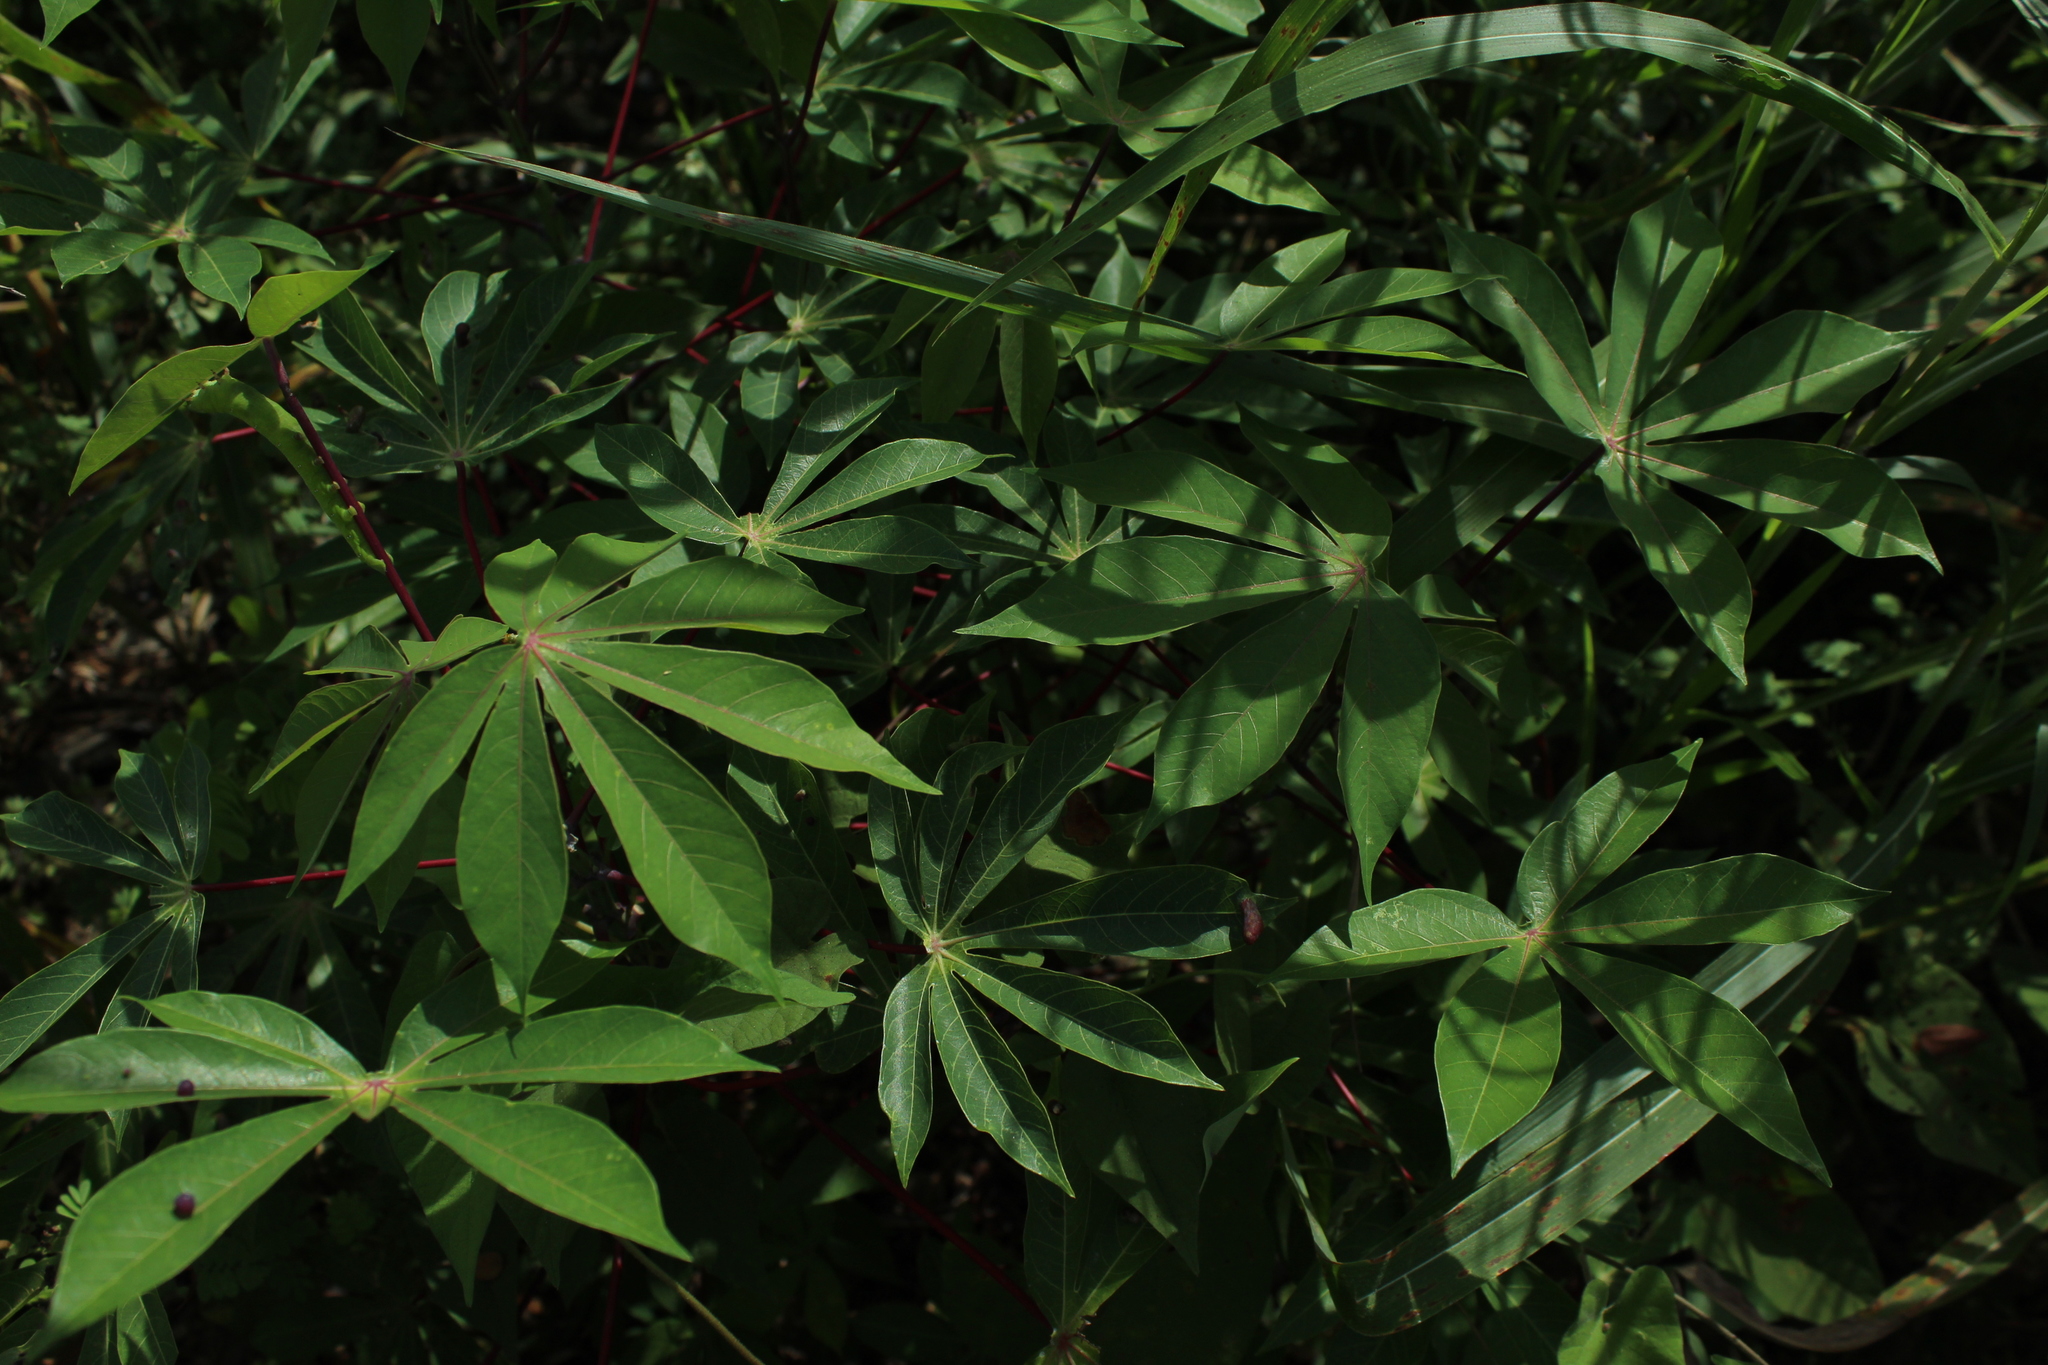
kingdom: Plantae
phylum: Tracheophyta
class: Magnoliopsida
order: Malpighiales
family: Euphorbiaceae
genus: Manihot
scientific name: Manihot esculenta
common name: Cassava
